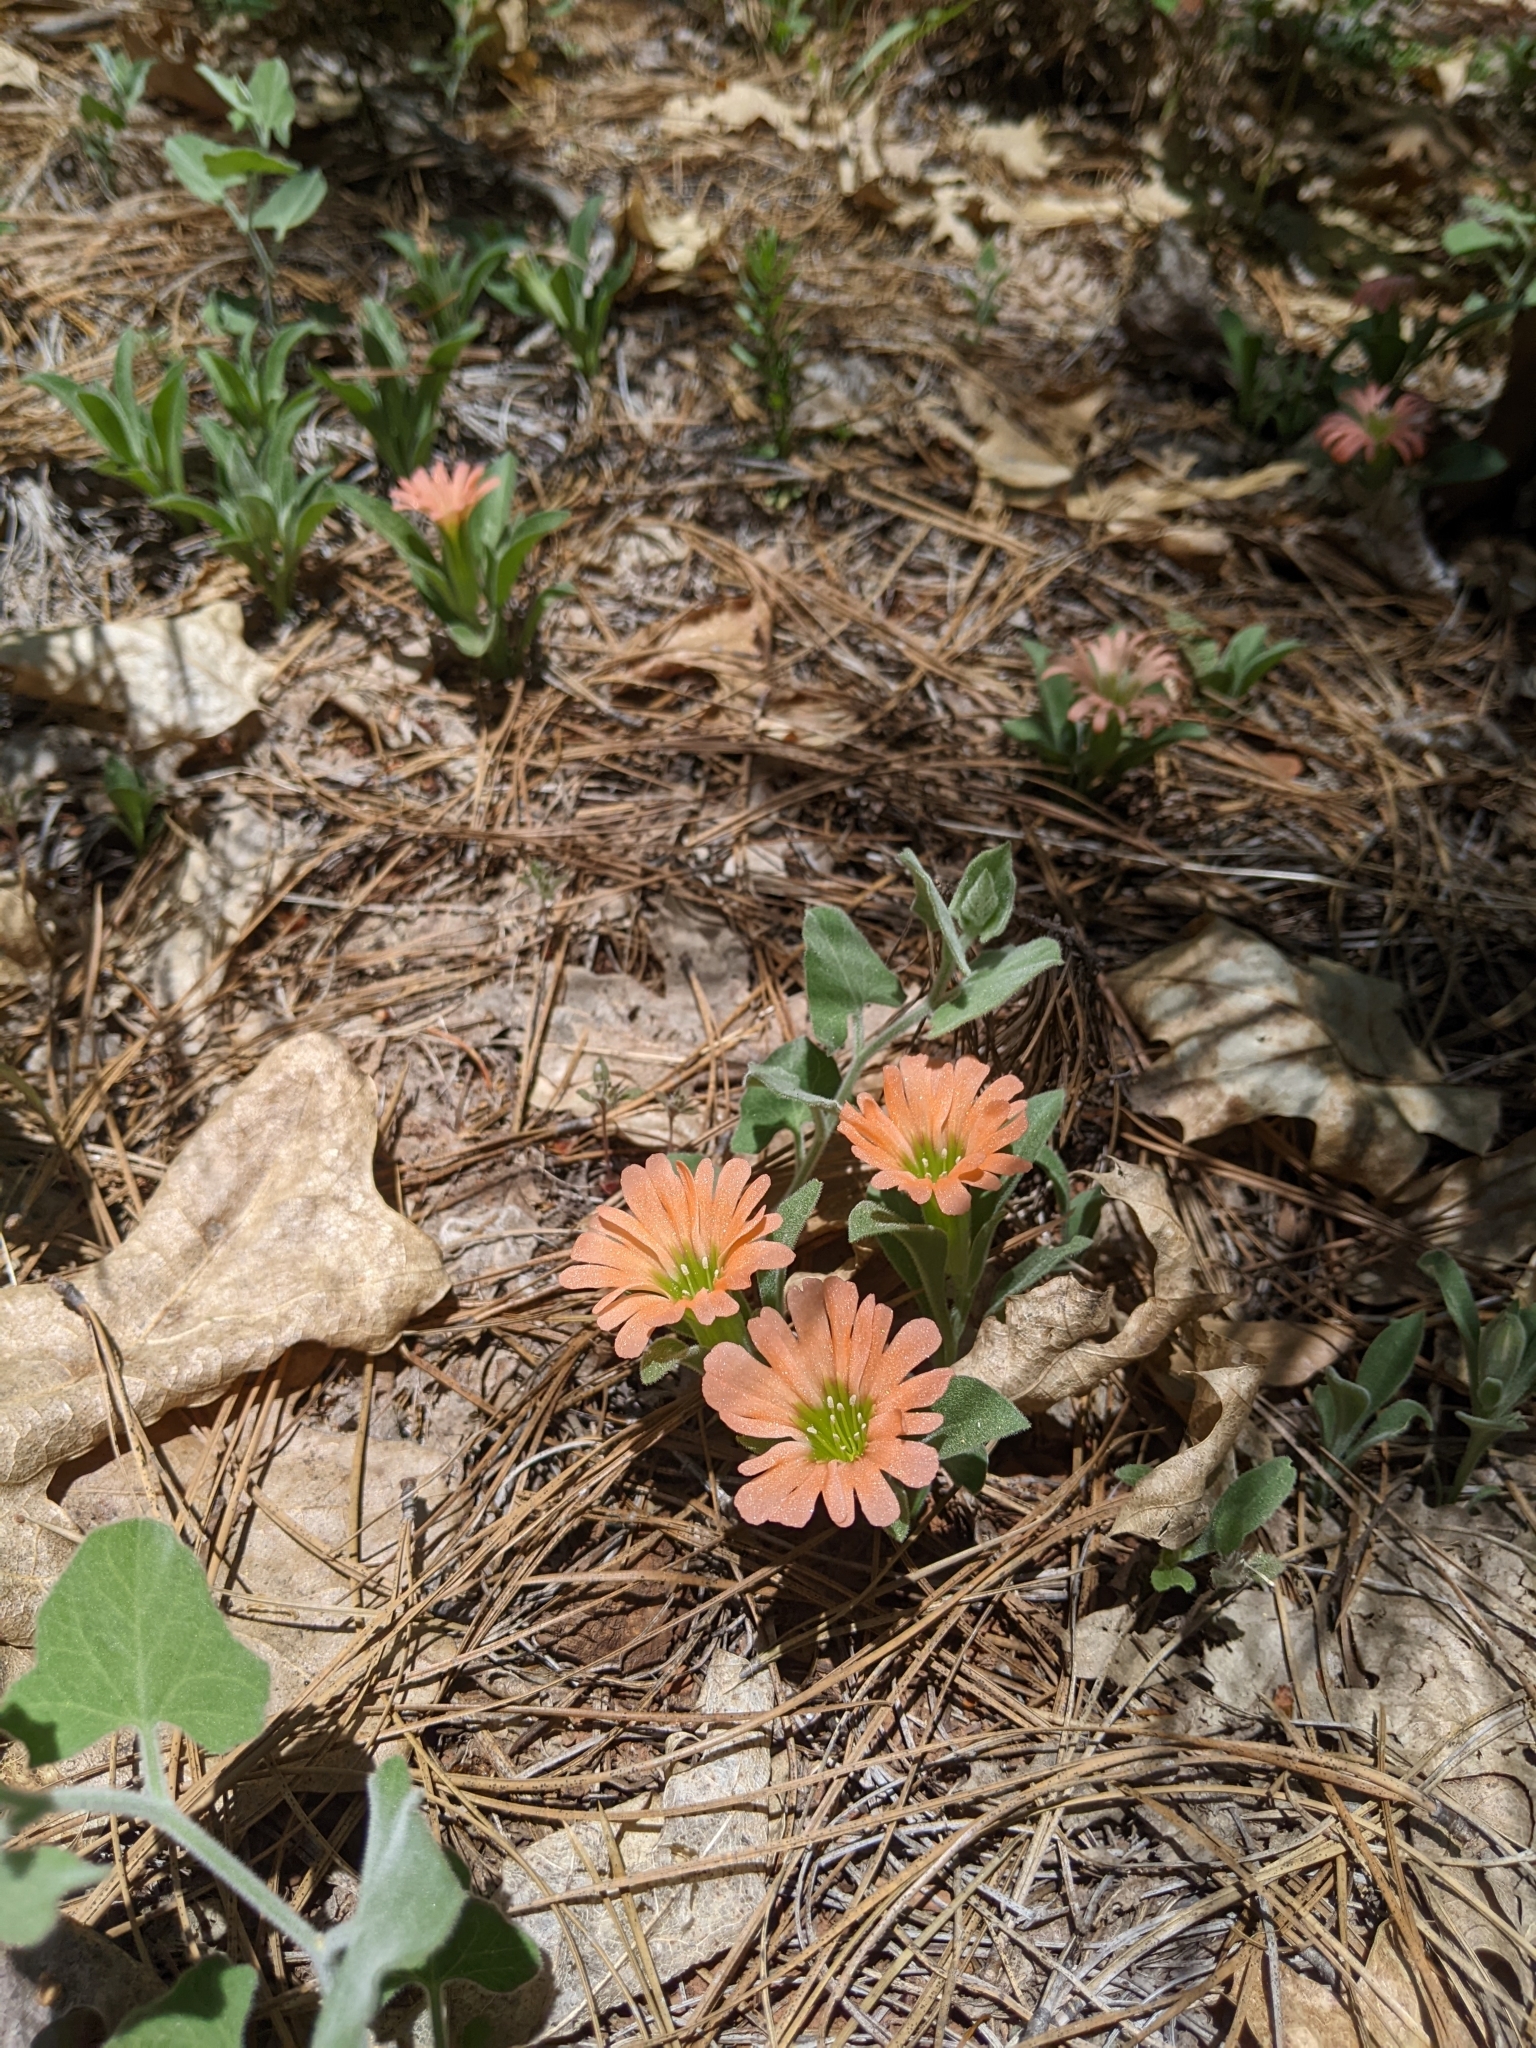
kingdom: Plantae
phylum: Tracheophyta
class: Magnoliopsida
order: Caryophyllales
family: Caryophyllaceae
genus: Silene
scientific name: Silene salmonacea
